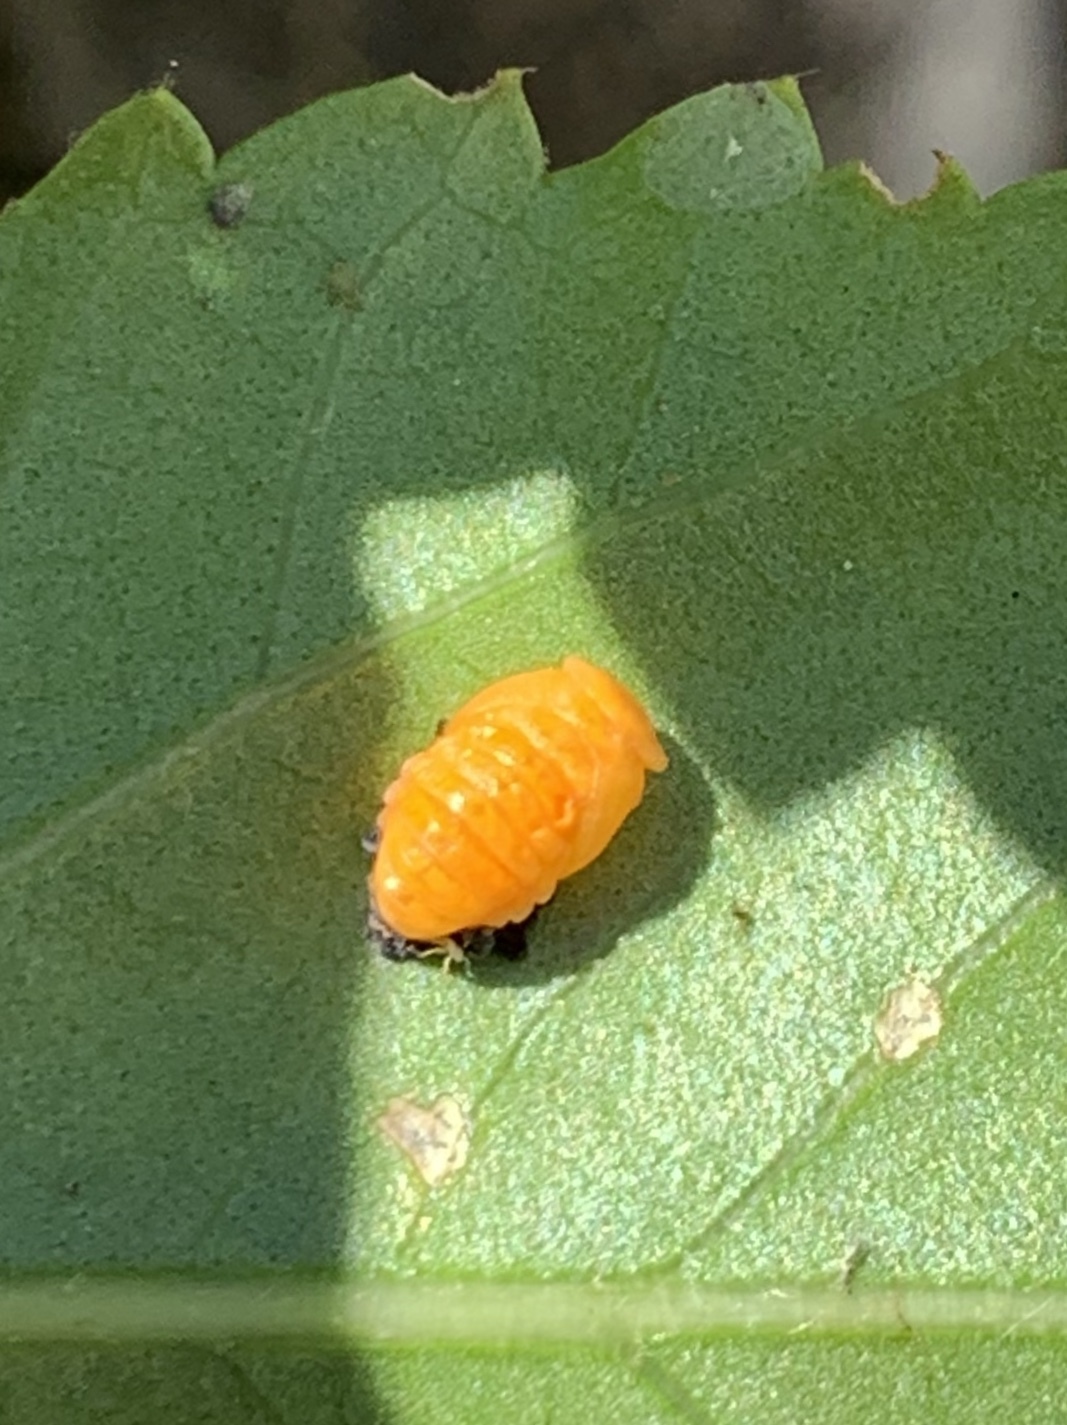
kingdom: Animalia
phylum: Arthropoda
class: Insecta
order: Coleoptera
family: Coccinellidae
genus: Harmonia
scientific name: Harmonia axyridis
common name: Harlequin ladybird
